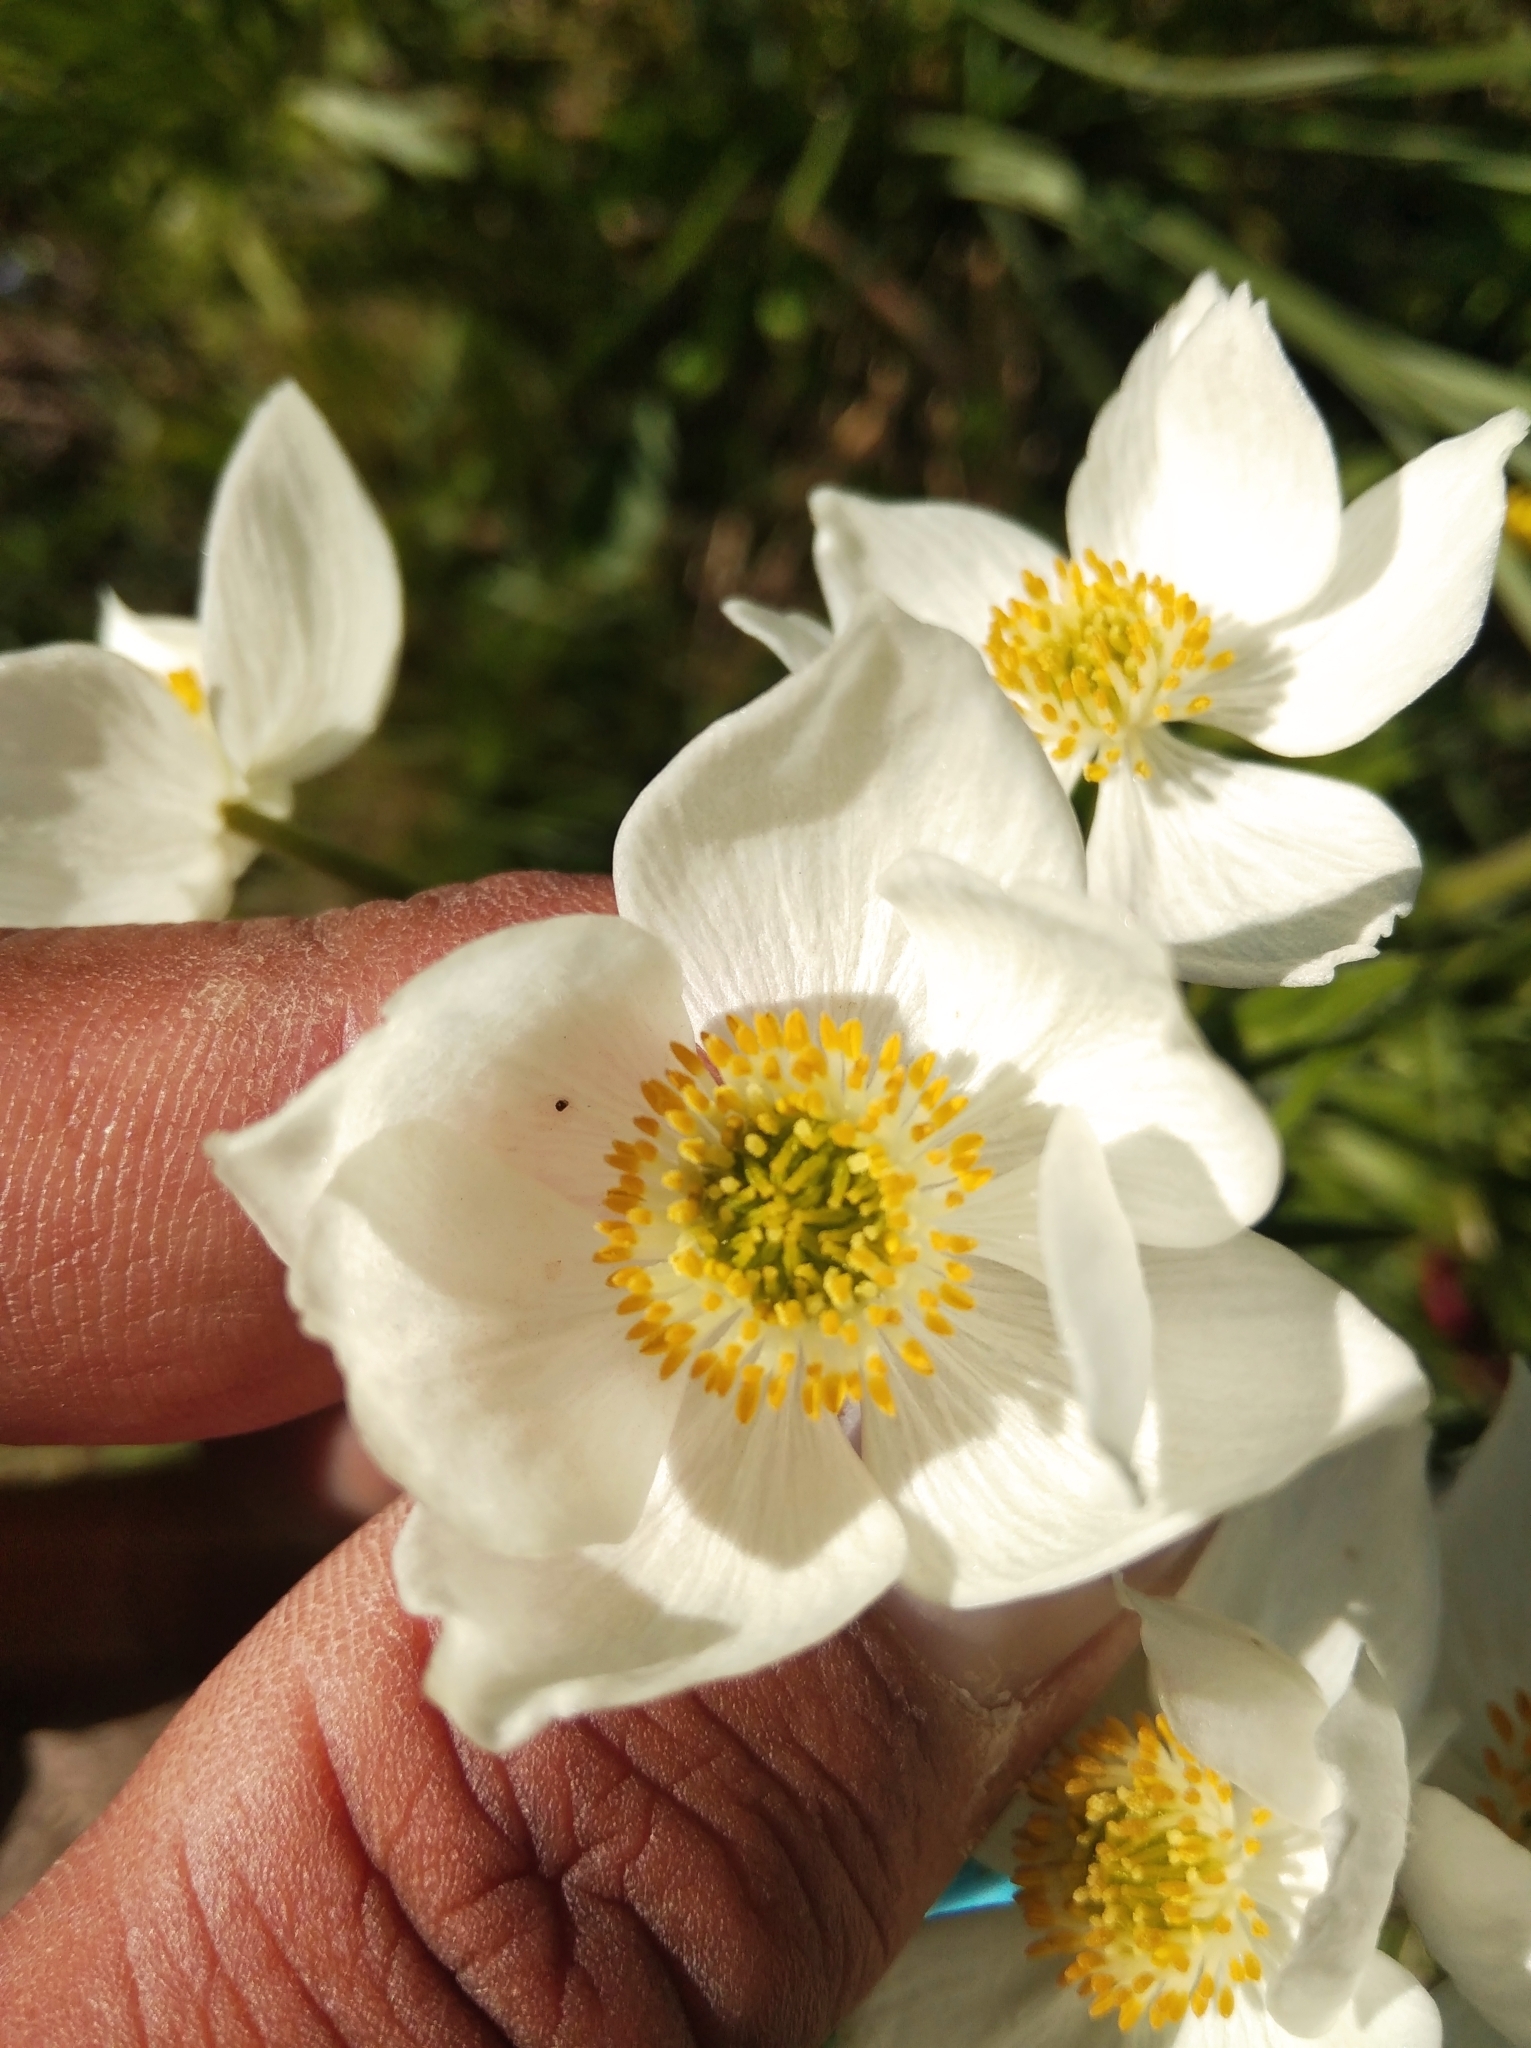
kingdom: Plantae
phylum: Tracheophyta
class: Magnoliopsida
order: Ranunculales
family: Ranunculaceae
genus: Anemonastrum
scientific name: Anemonastrum narcissiflorum
